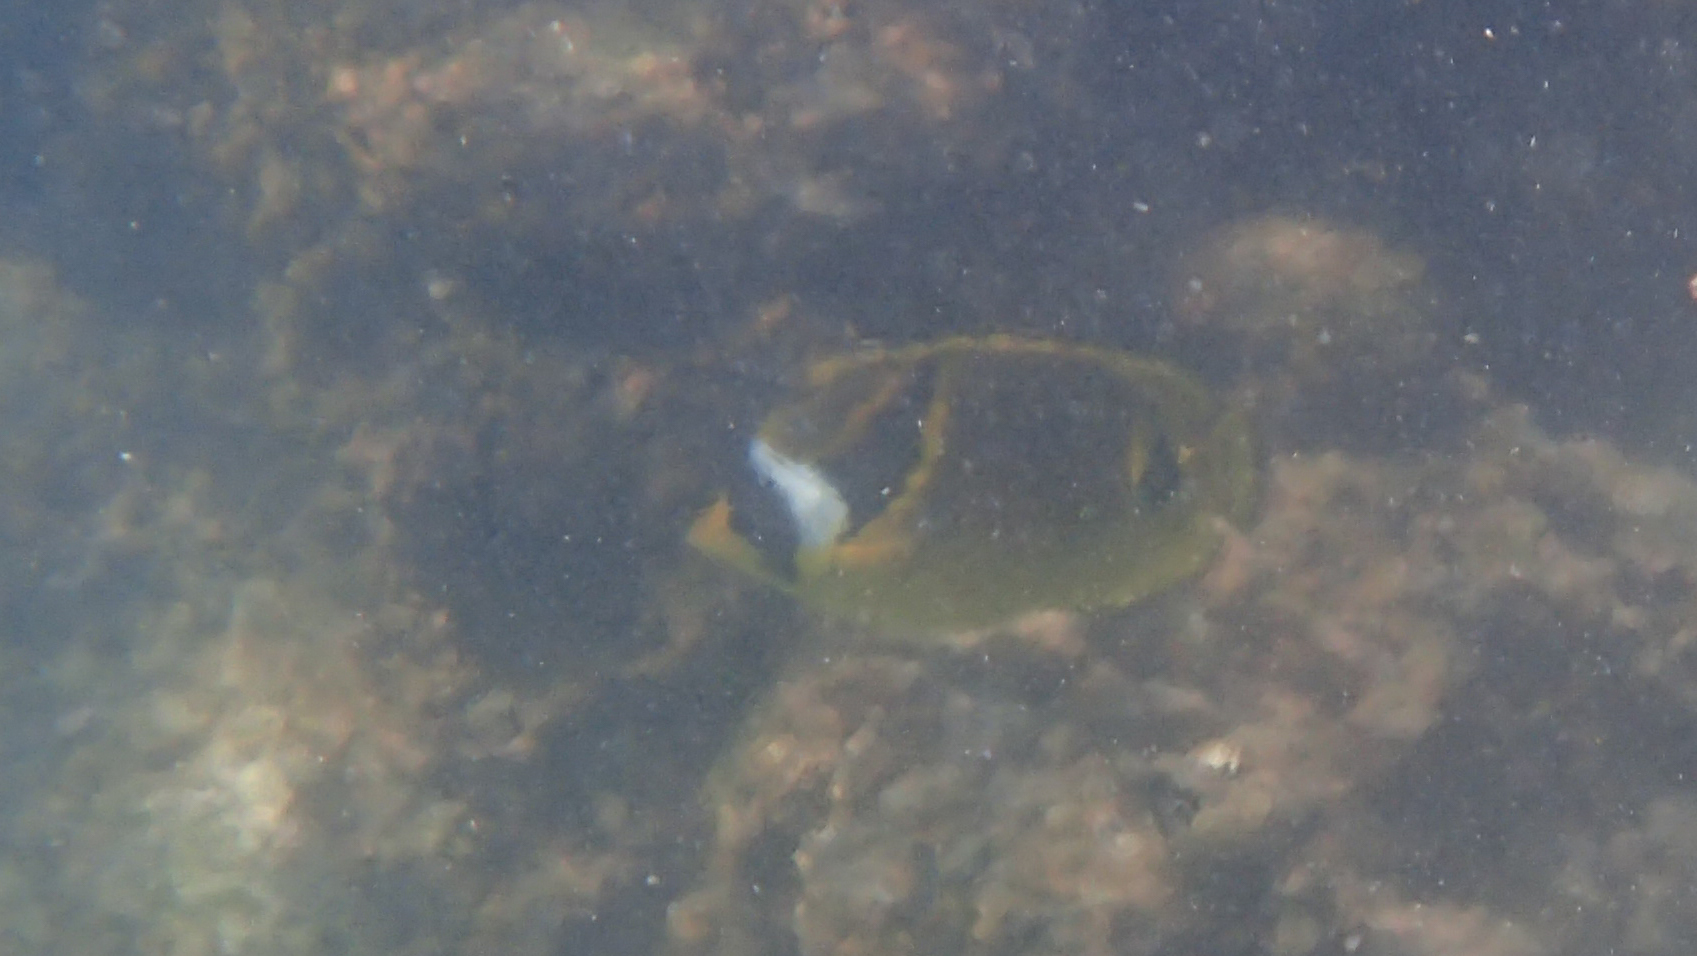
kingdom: Animalia
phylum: Chordata
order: Perciformes
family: Chaetodontidae
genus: Chaetodon
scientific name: Chaetodon lunula
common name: Raccoon butterflyfish
